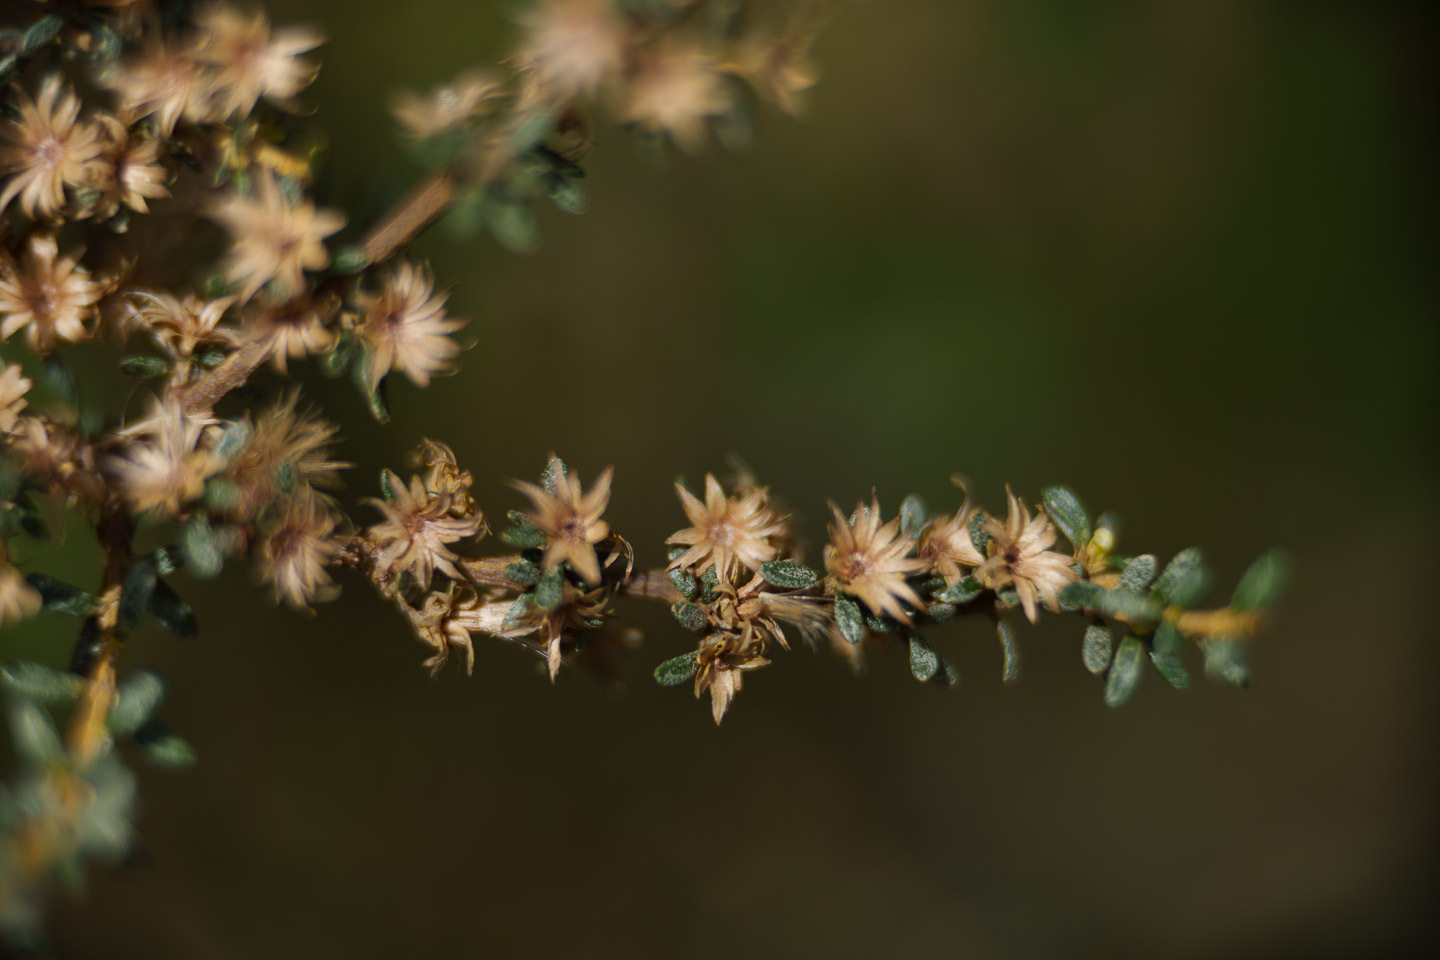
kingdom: Plantae
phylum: Tracheophyta
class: Magnoliopsida
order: Asterales
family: Asteraceae
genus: Olearia
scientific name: Olearia solandri
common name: Coastal daisybush
